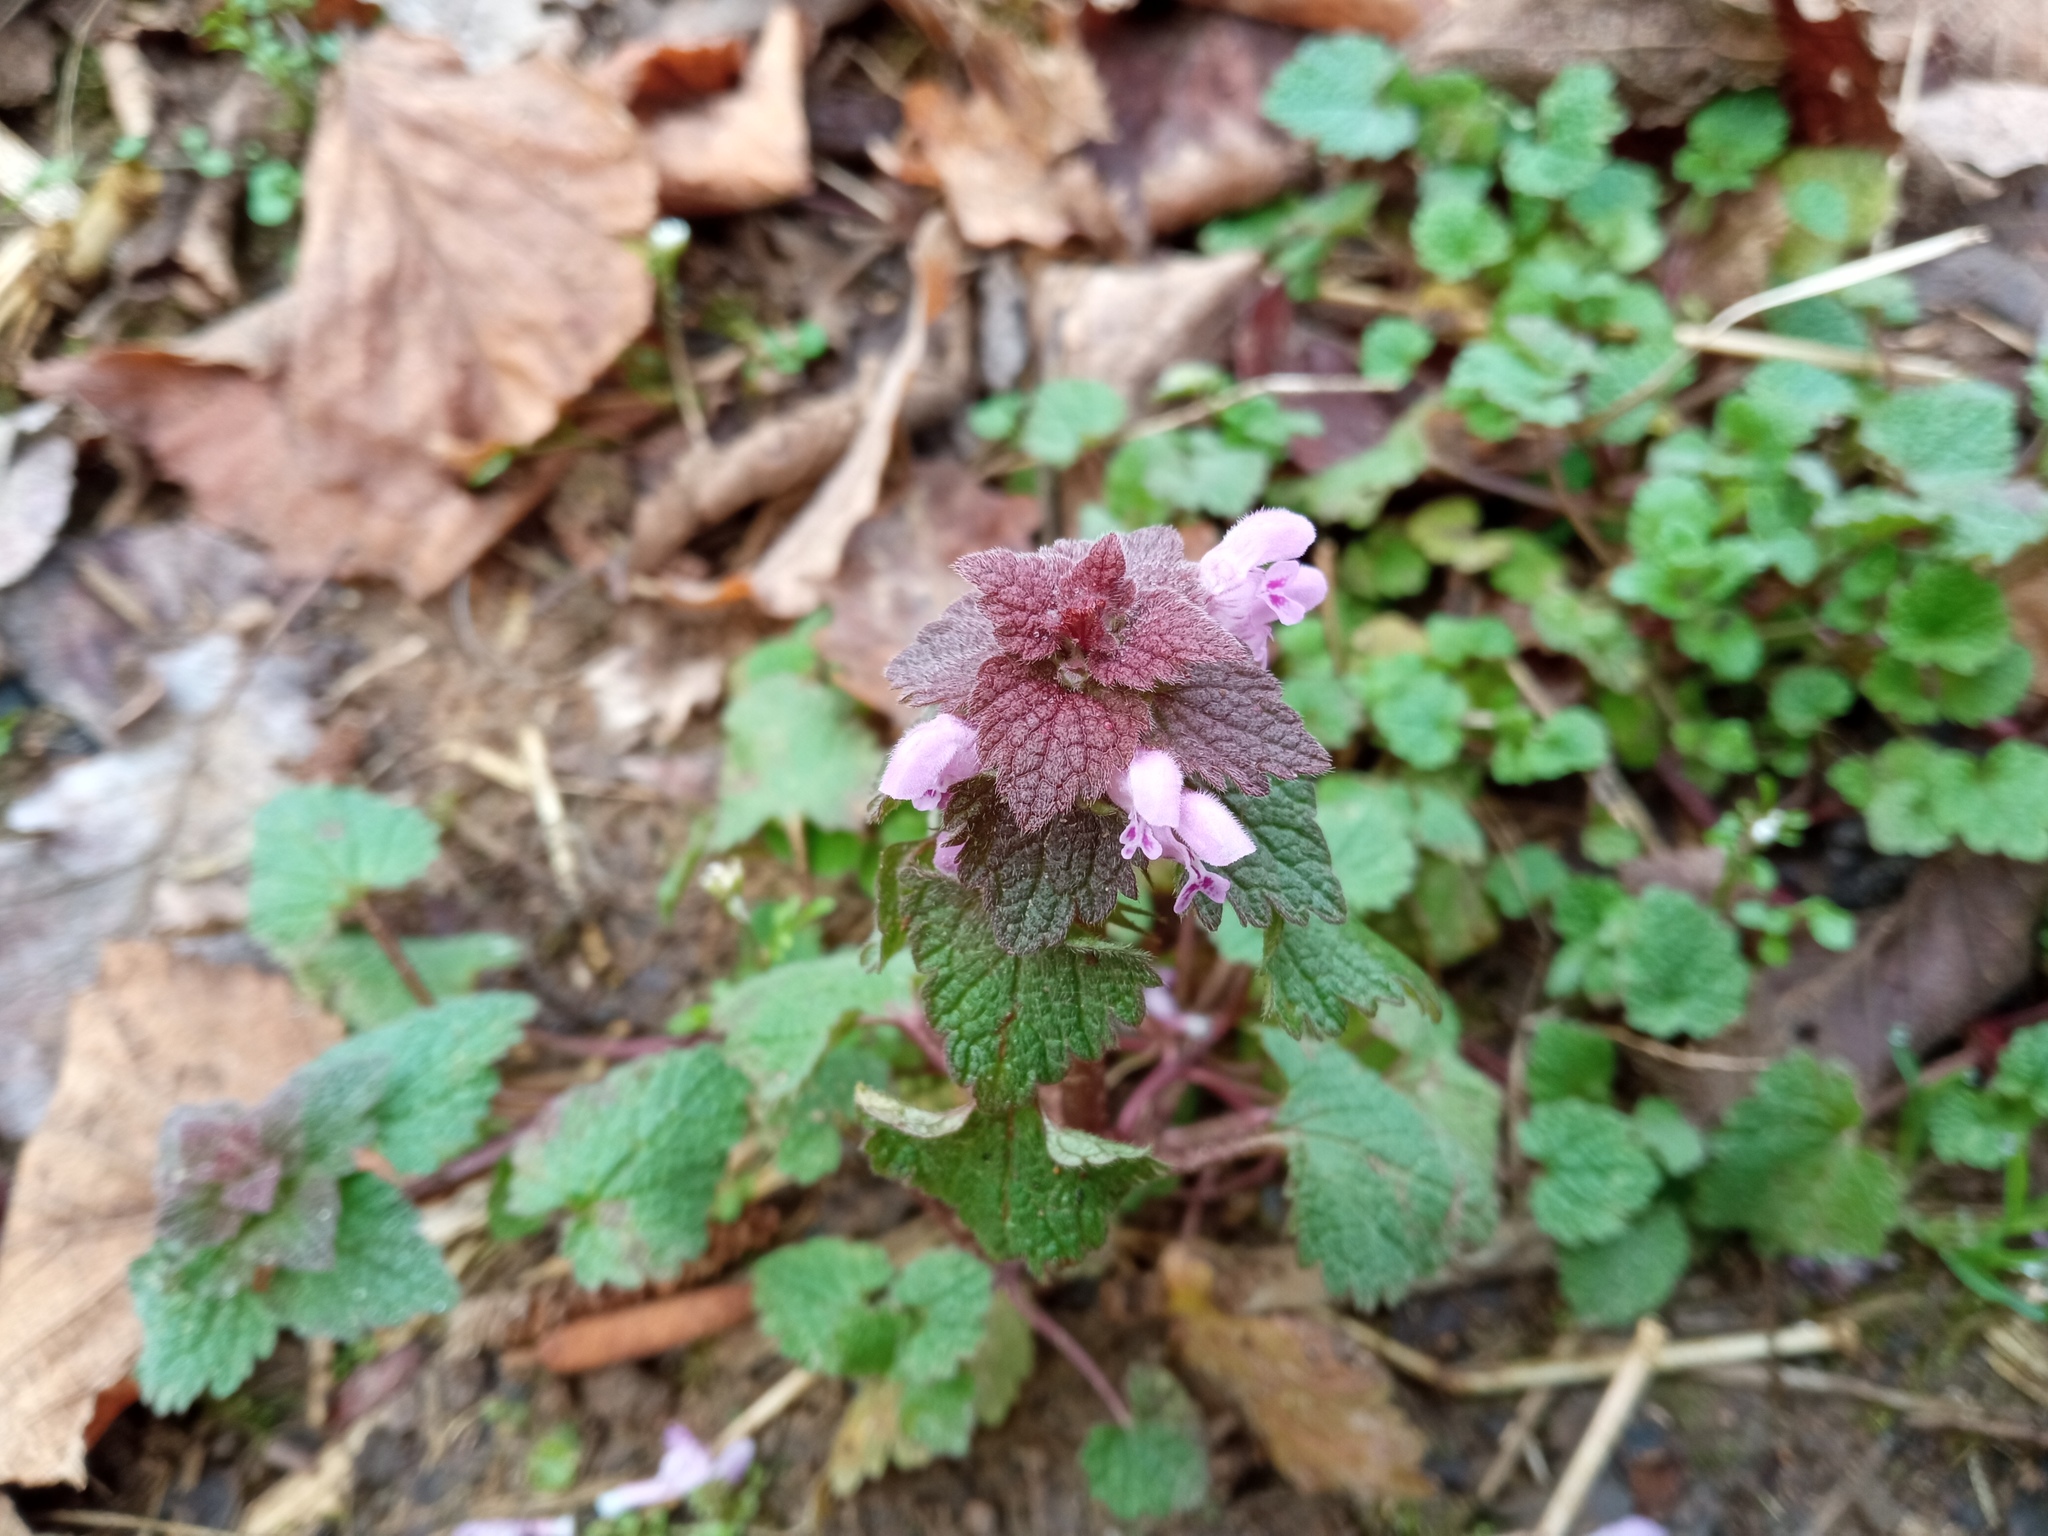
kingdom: Plantae
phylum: Tracheophyta
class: Magnoliopsida
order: Lamiales
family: Lamiaceae
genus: Lamium
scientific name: Lamium purpureum
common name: Red dead-nettle
